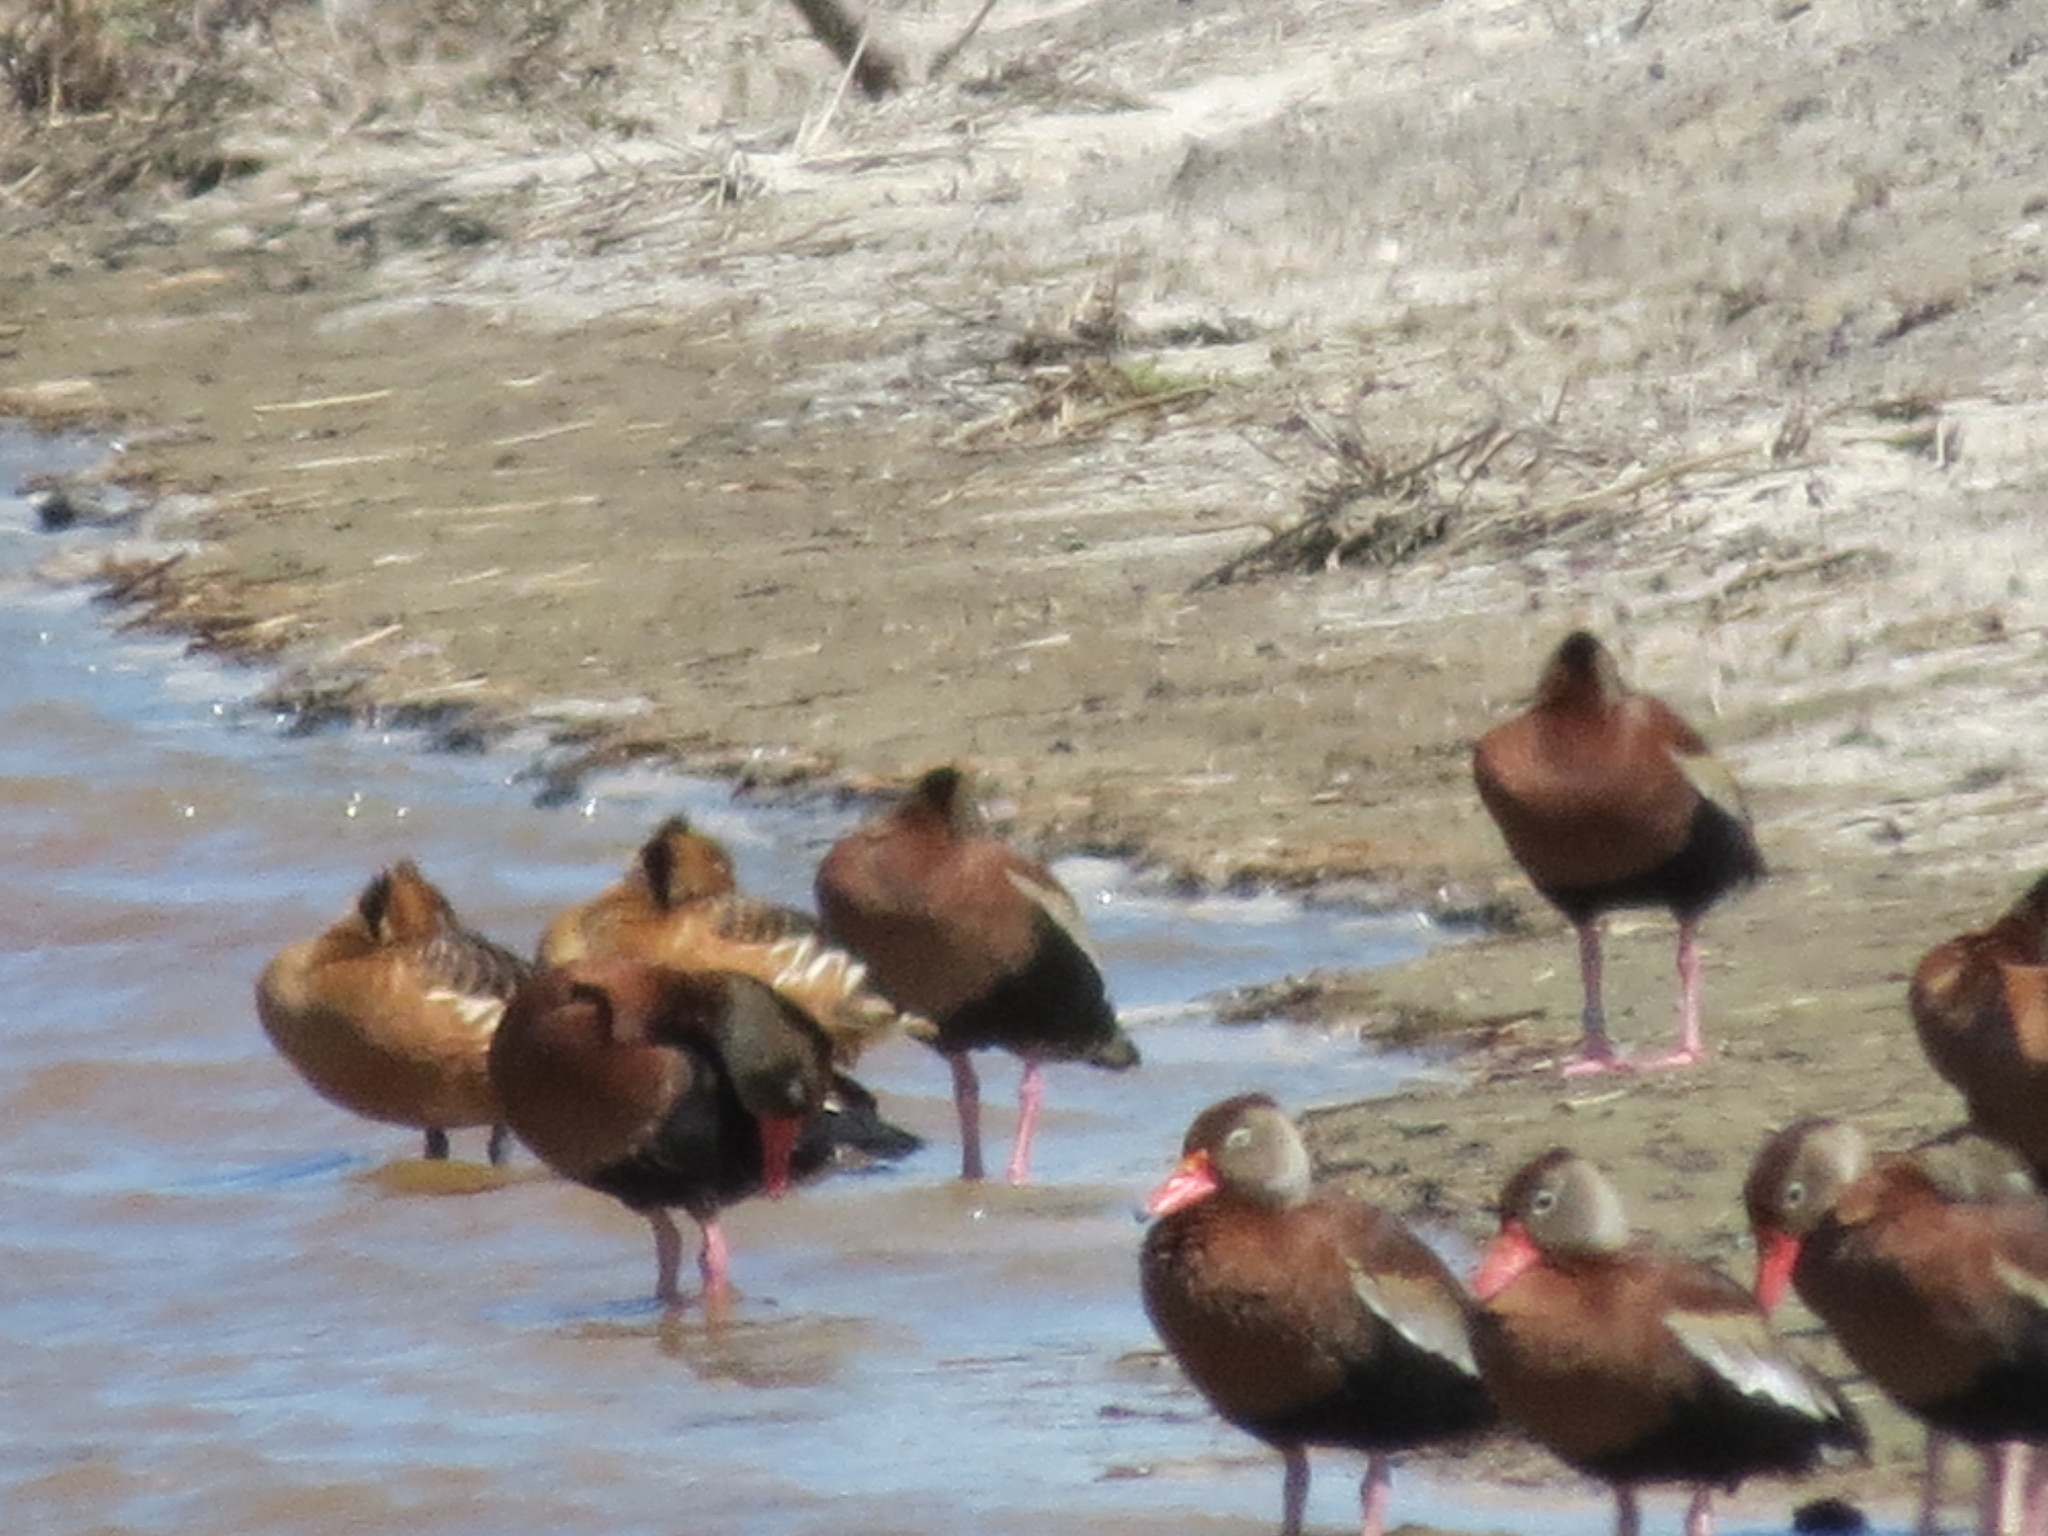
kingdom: Animalia
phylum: Chordata
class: Aves
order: Anseriformes
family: Anatidae
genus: Dendrocygna
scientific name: Dendrocygna autumnalis
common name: Black-bellied whistling duck
